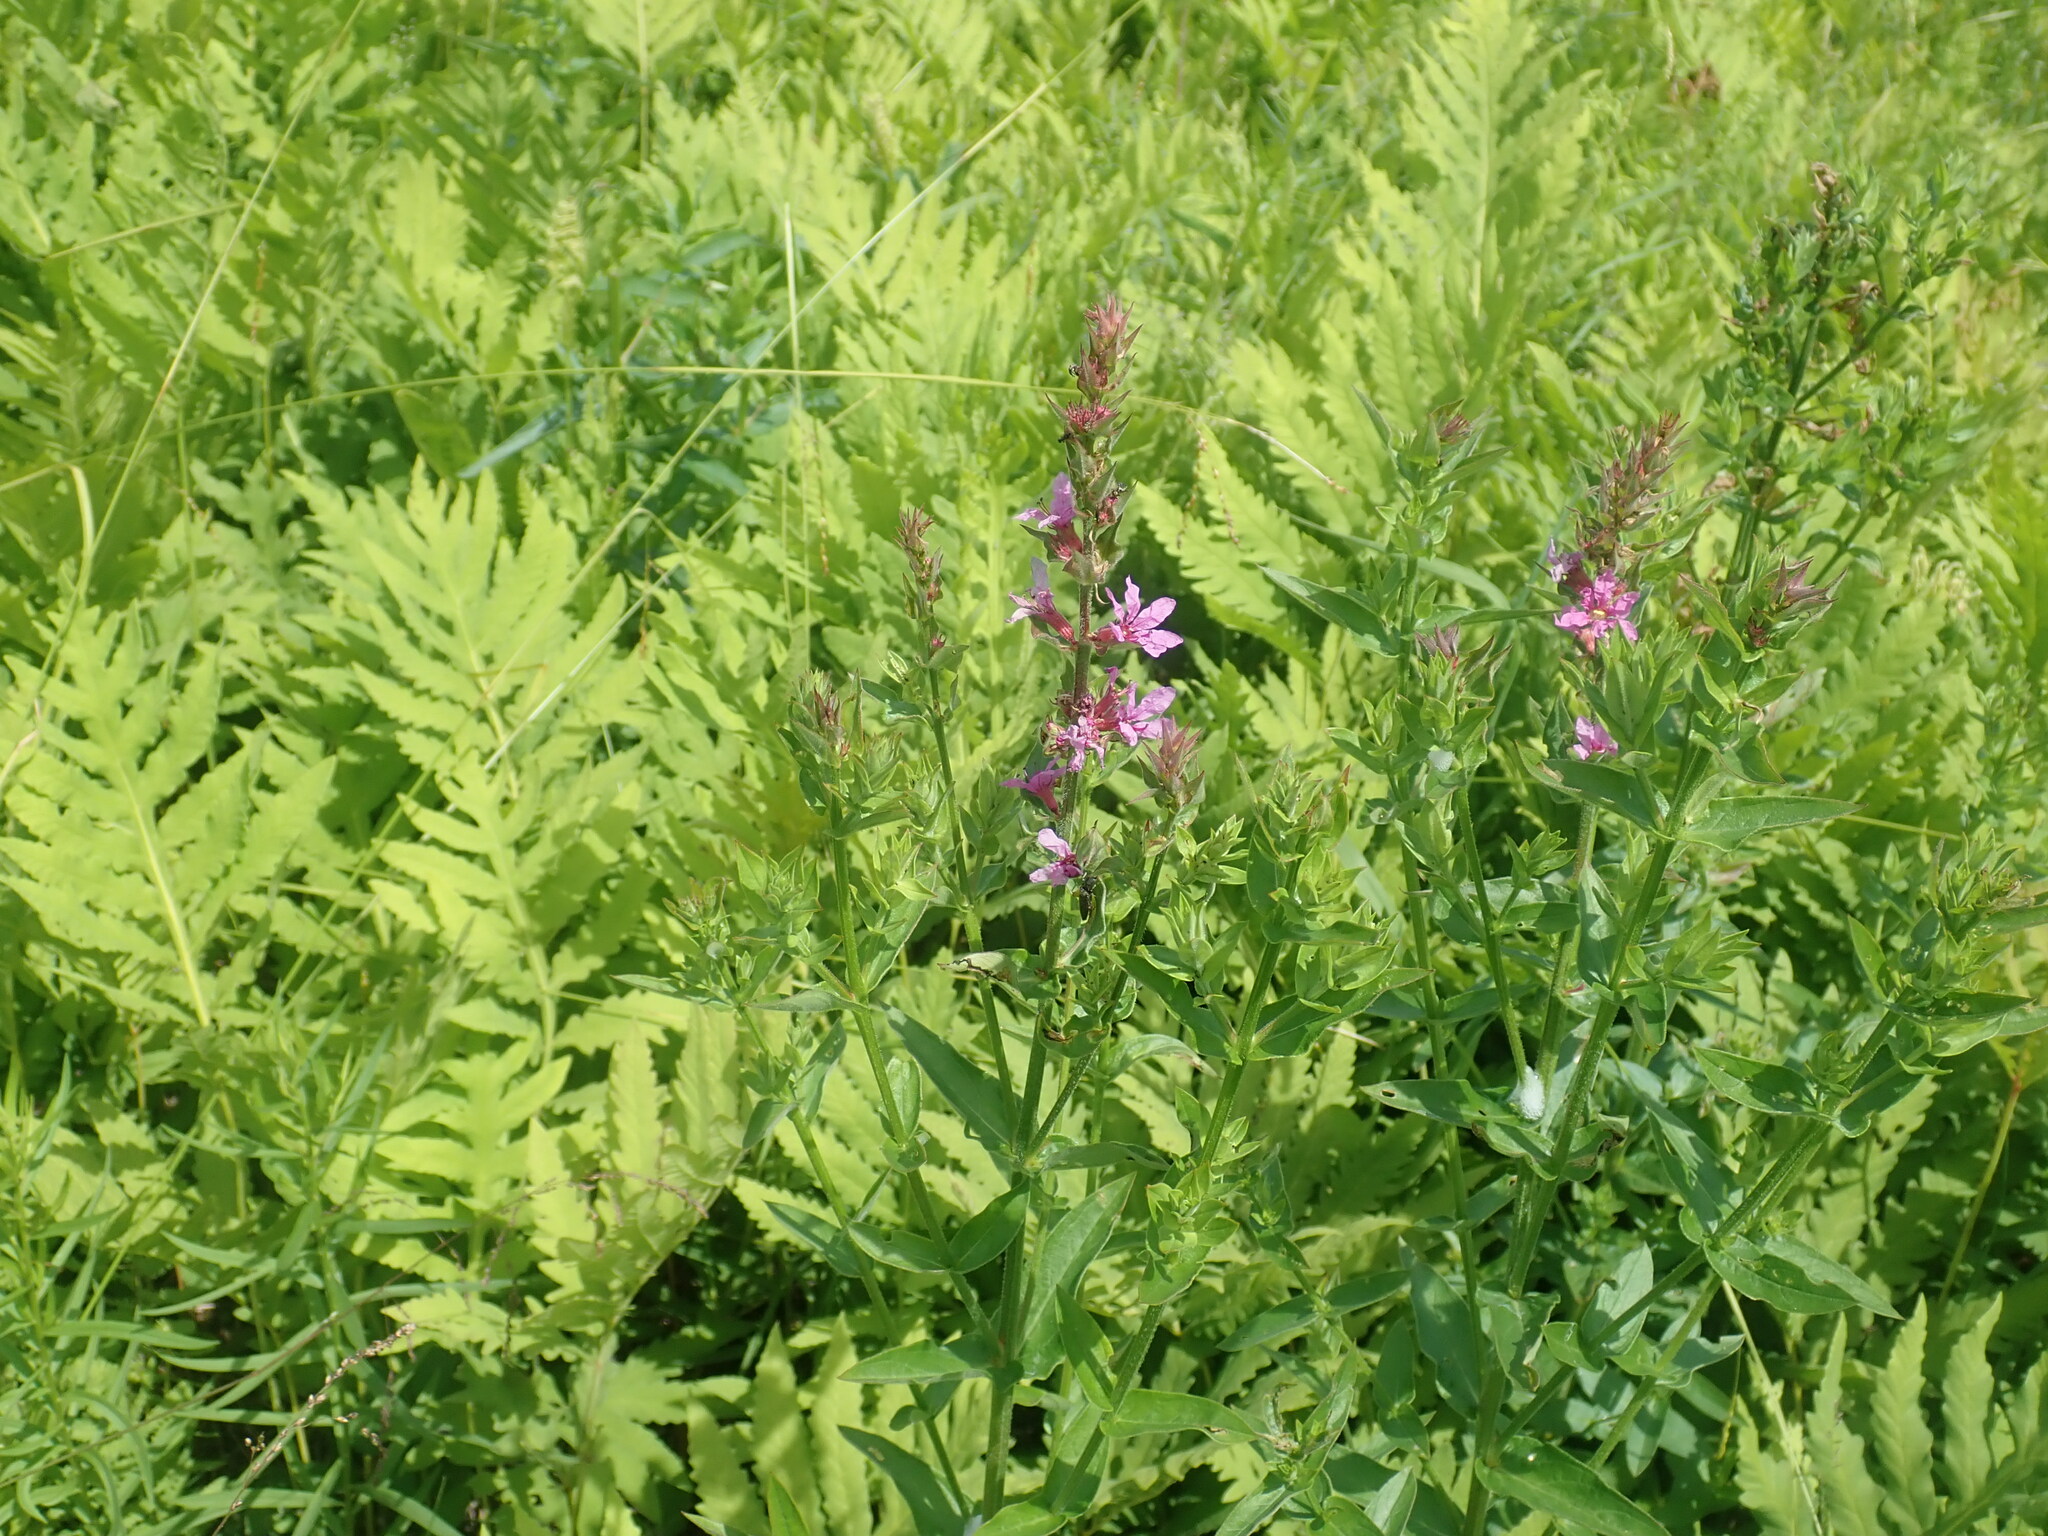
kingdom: Plantae
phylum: Tracheophyta
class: Magnoliopsida
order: Myrtales
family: Lythraceae
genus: Lythrum
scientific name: Lythrum salicaria
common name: Purple loosestrife
